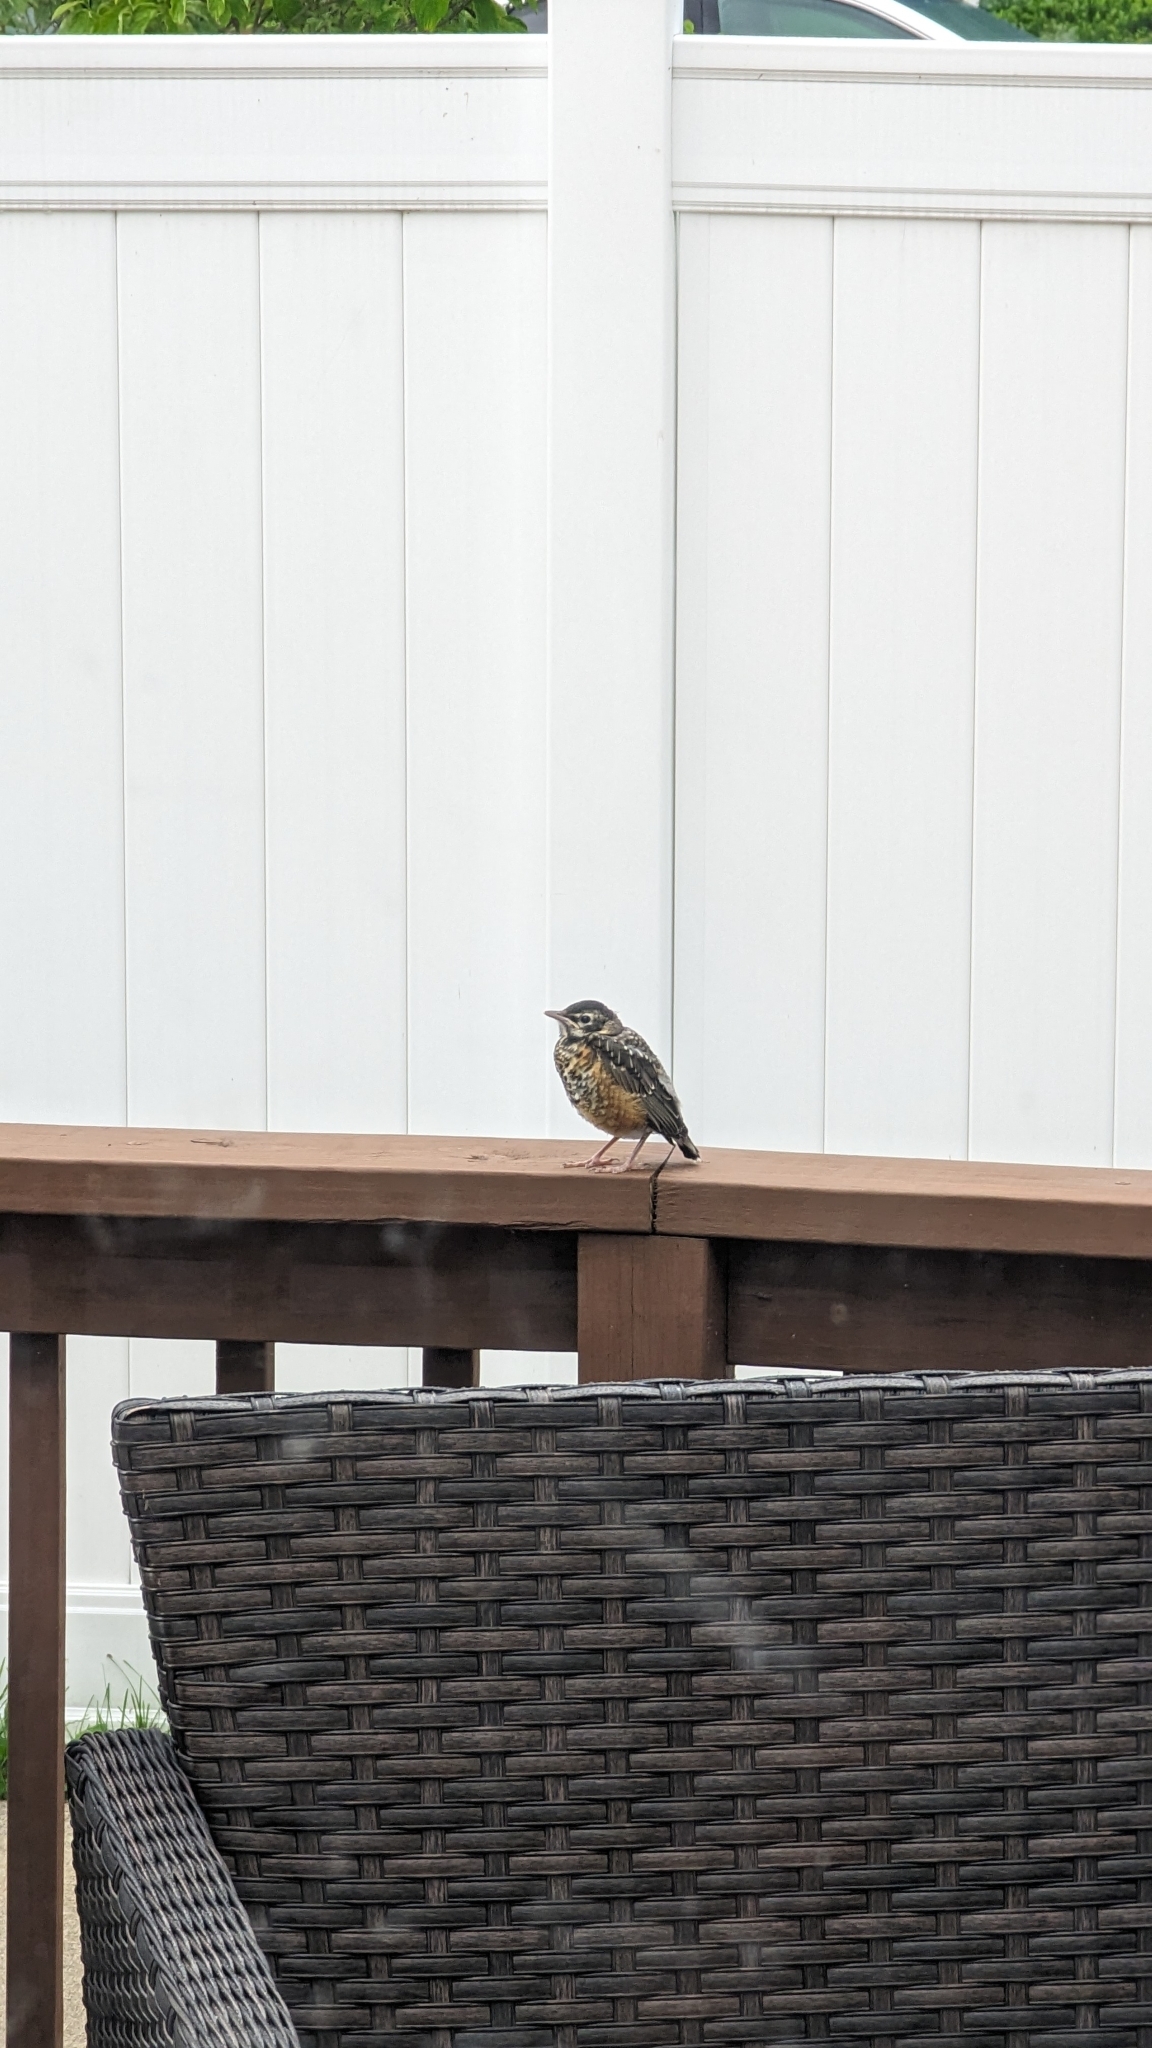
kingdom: Animalia
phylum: Chordata
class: Aves
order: Passeriformes
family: Turdidae
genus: Turdus
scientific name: Turdus migratorius
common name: American robin
